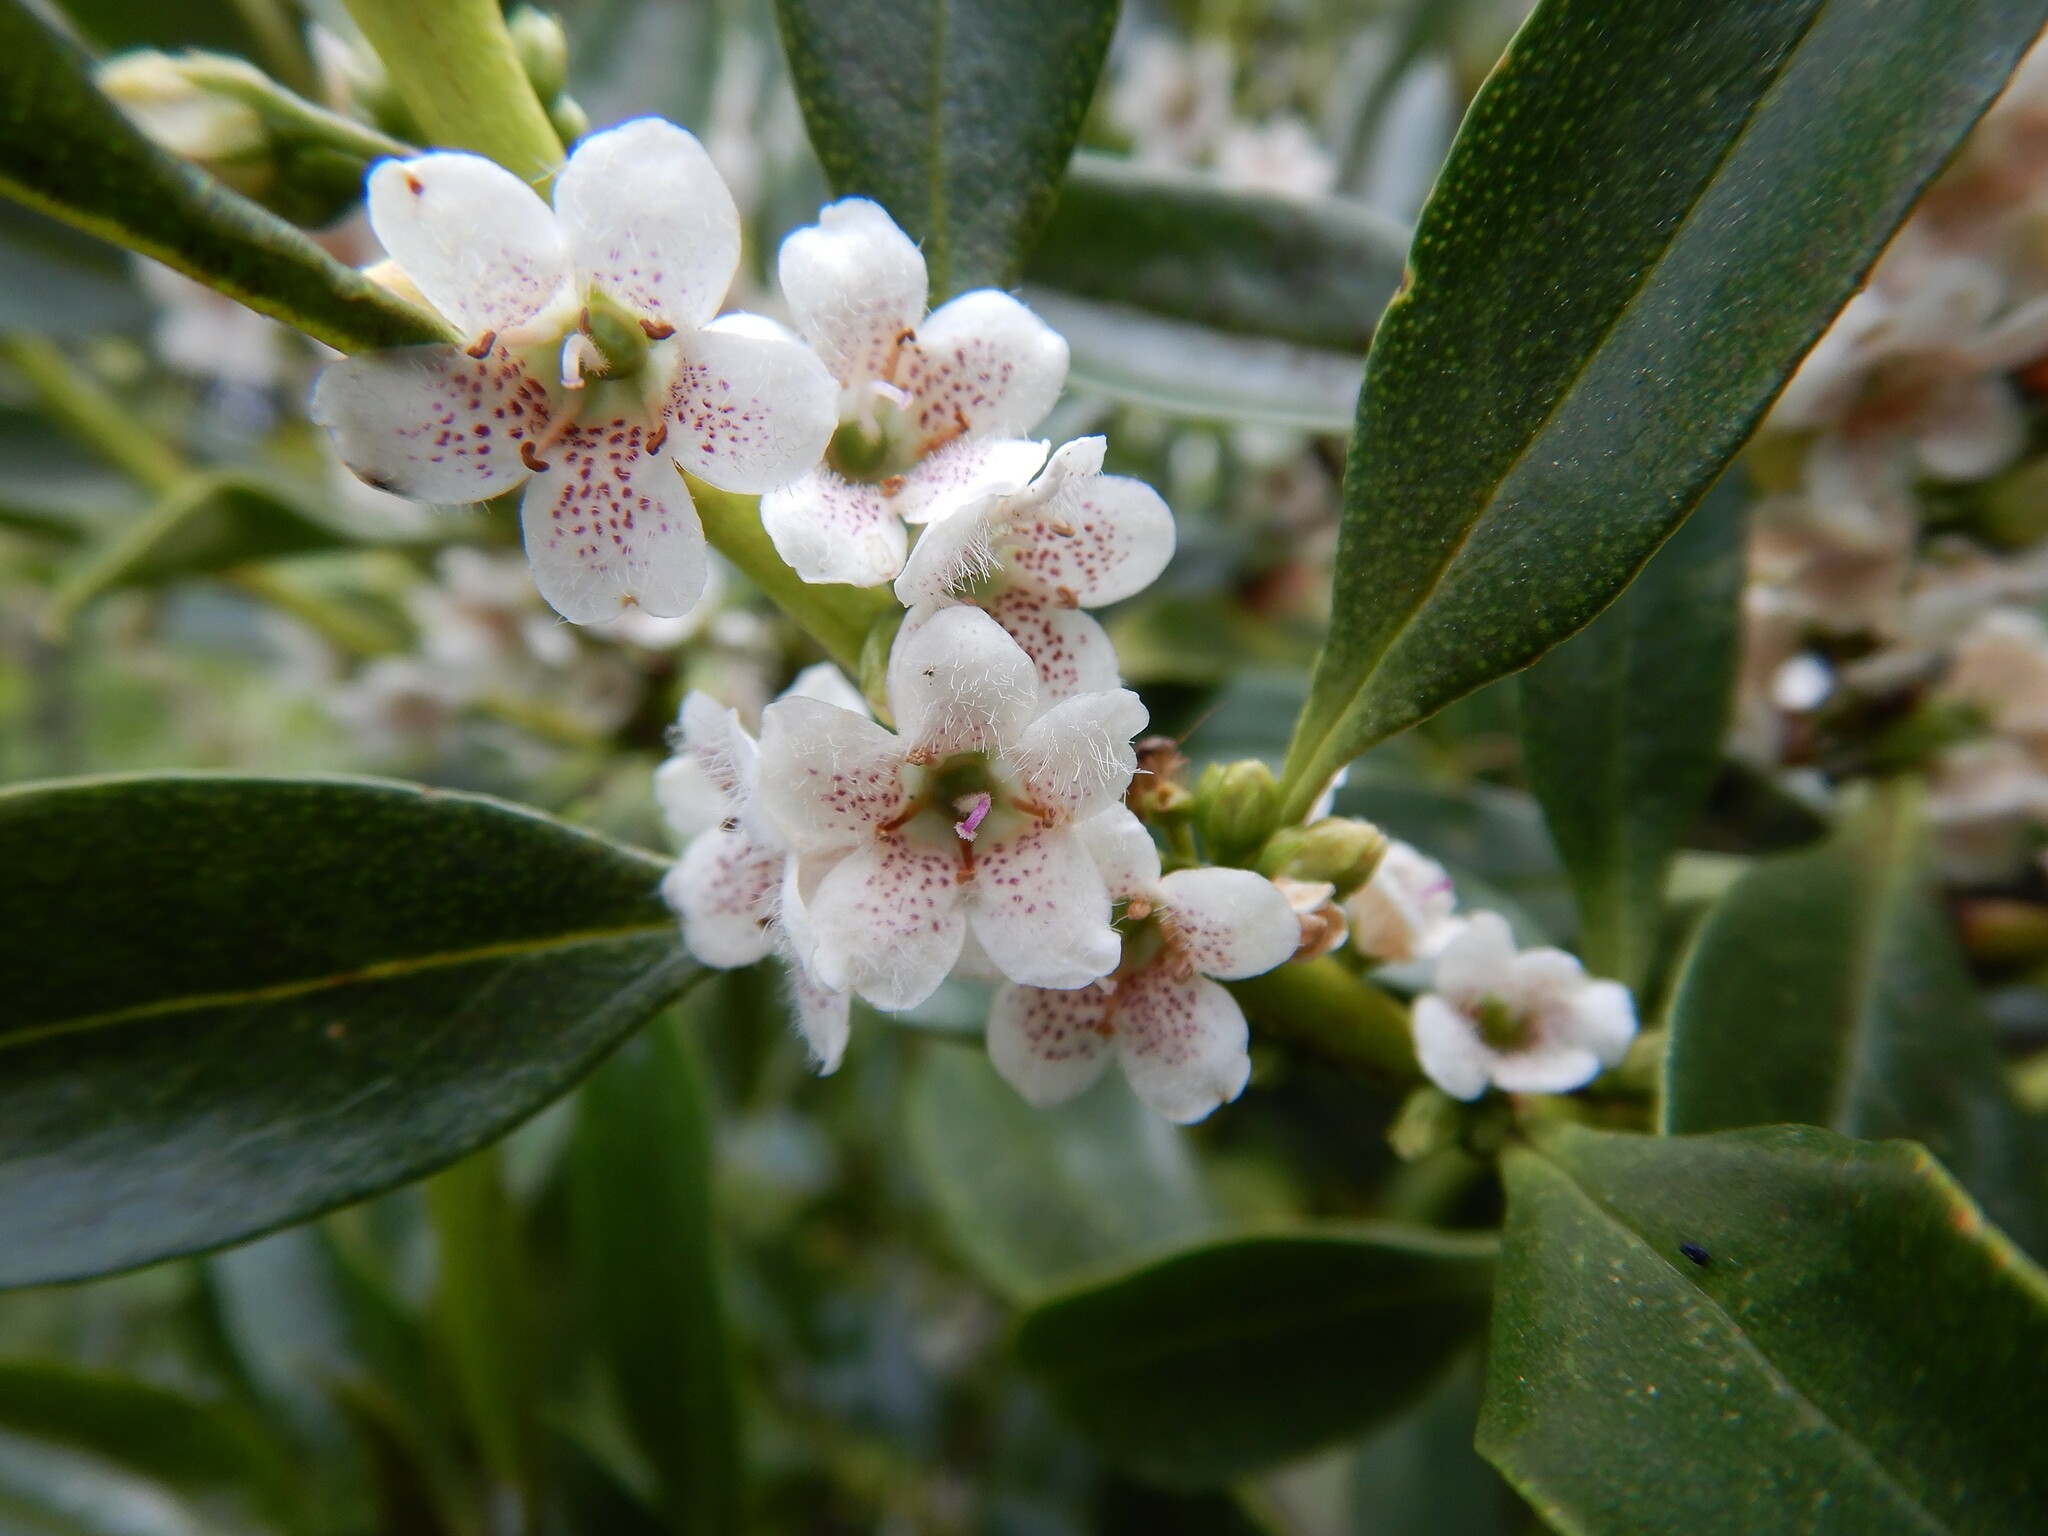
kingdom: Plantae
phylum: Tracheophyta
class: Magnoliopsida
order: Lamiales
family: Scrophulariaceae
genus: Myoporum
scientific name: Myoporum laetum
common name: Ngaio tree
